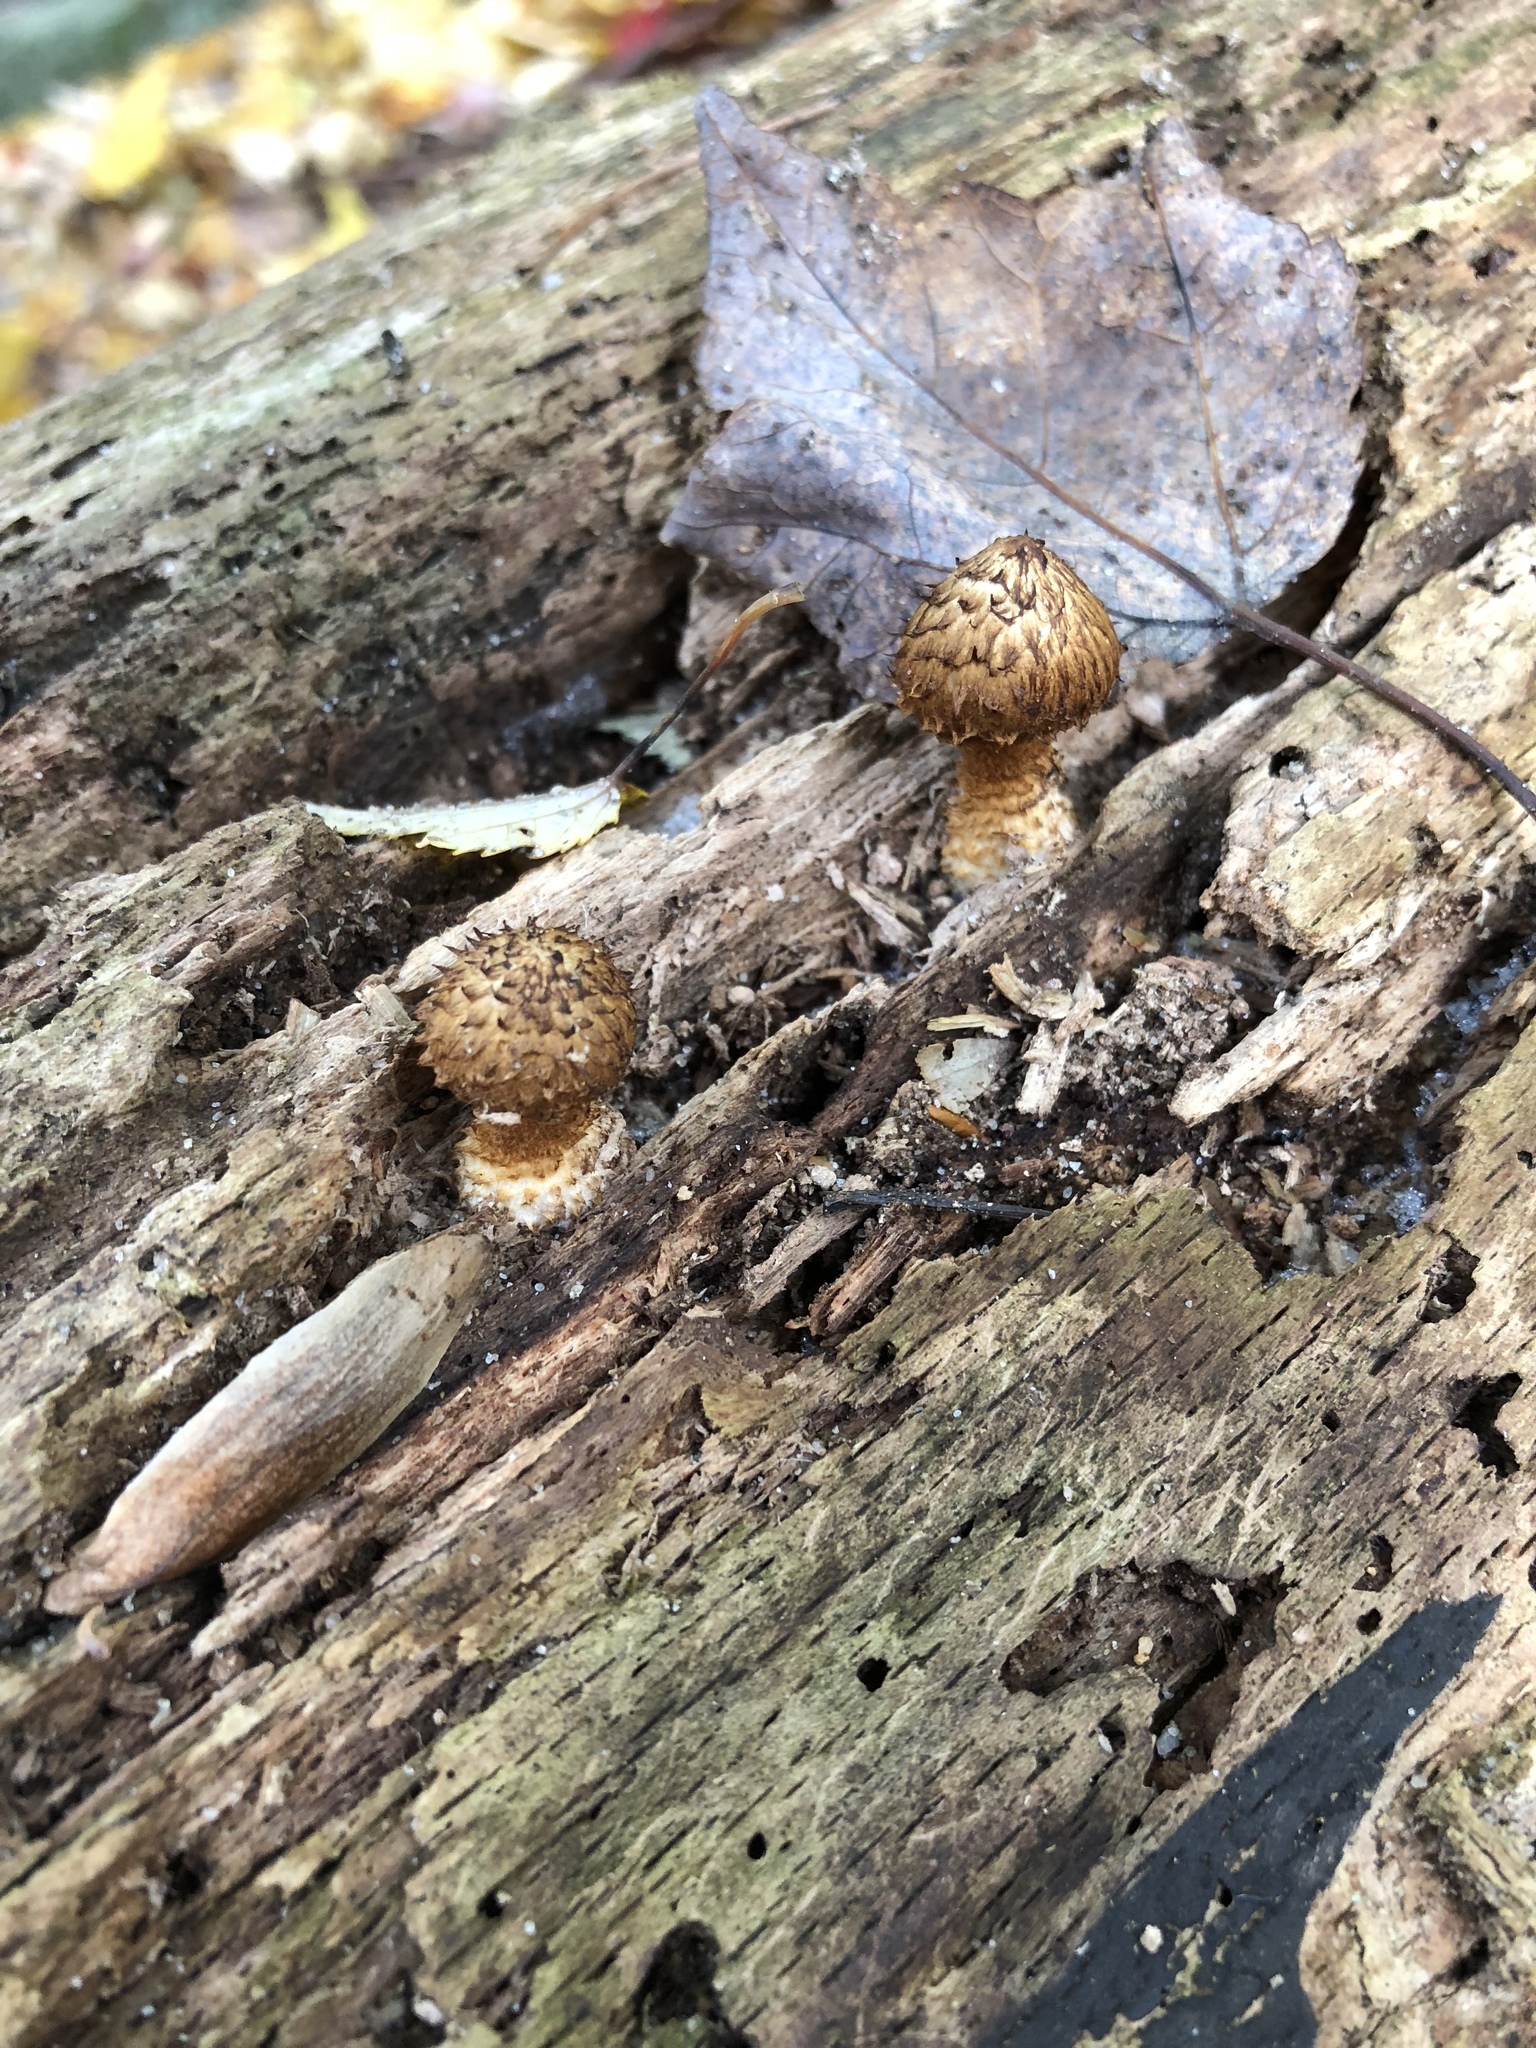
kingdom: Fungi
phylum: Basidiomycota
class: Agaricomycetes
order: Agaricales
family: Agaricaceae
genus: Leucopholiota
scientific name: Leucopholiota decorosa
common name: Decorated pholiota
